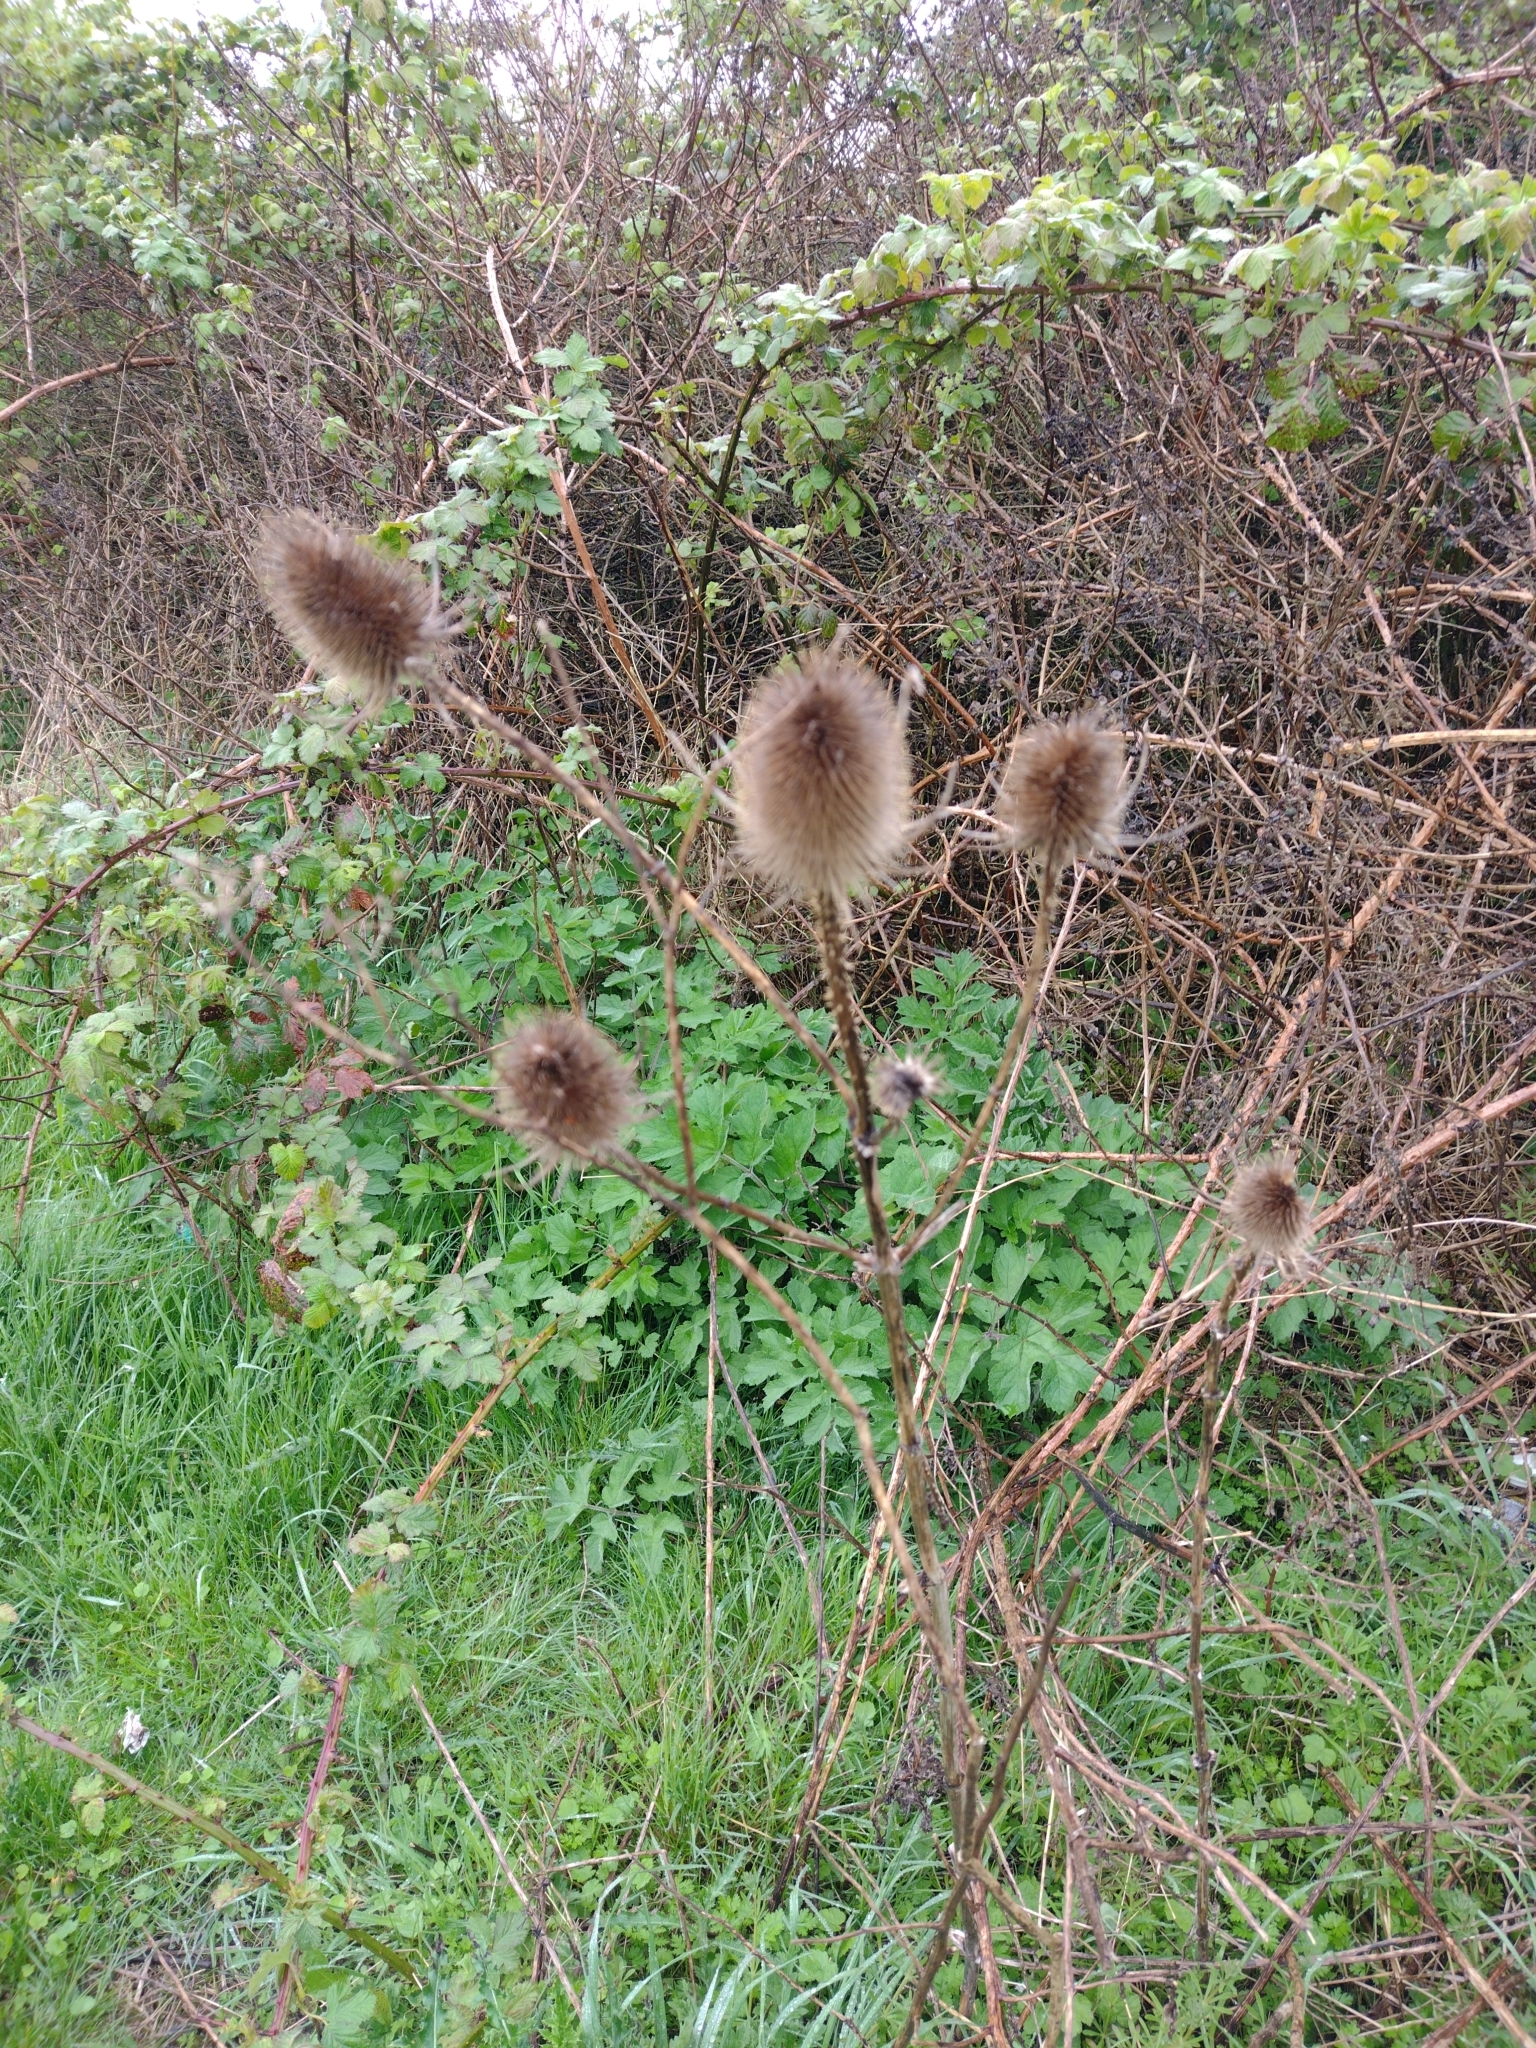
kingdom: Plantae
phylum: Tracheophyta
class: Magnoliopsida
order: Dipsacales
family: Caprifoliaceae
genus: Dipsacus
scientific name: Dipsacus fullonum
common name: Teasel
